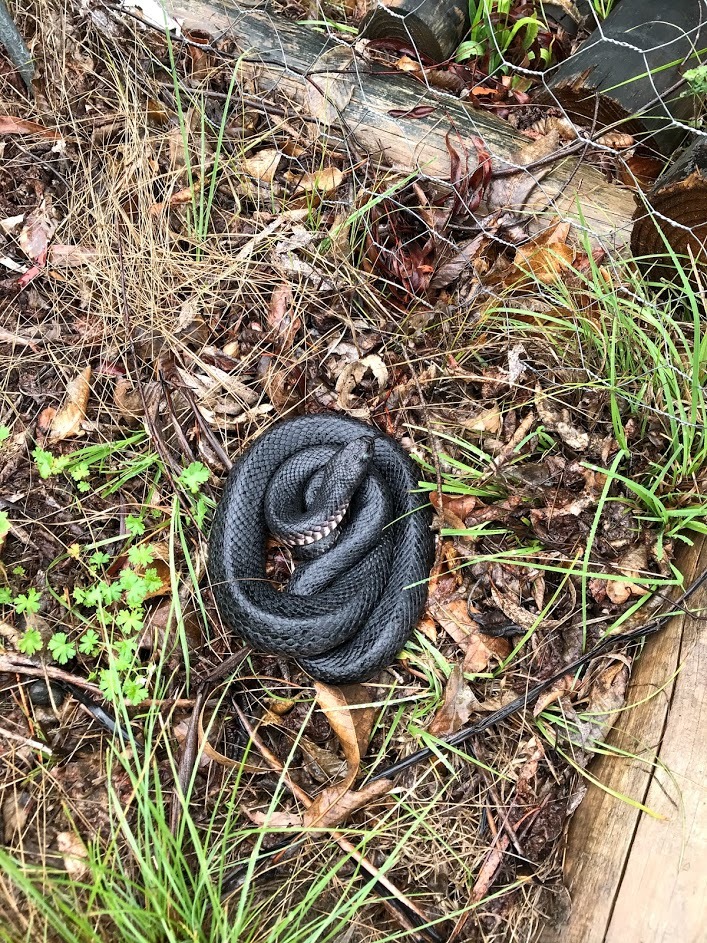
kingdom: Animalia
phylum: Chordata
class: Squamata
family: Elapidae
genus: Pseudechis
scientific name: Pseudechis porphyriacus
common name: Australian black snake
